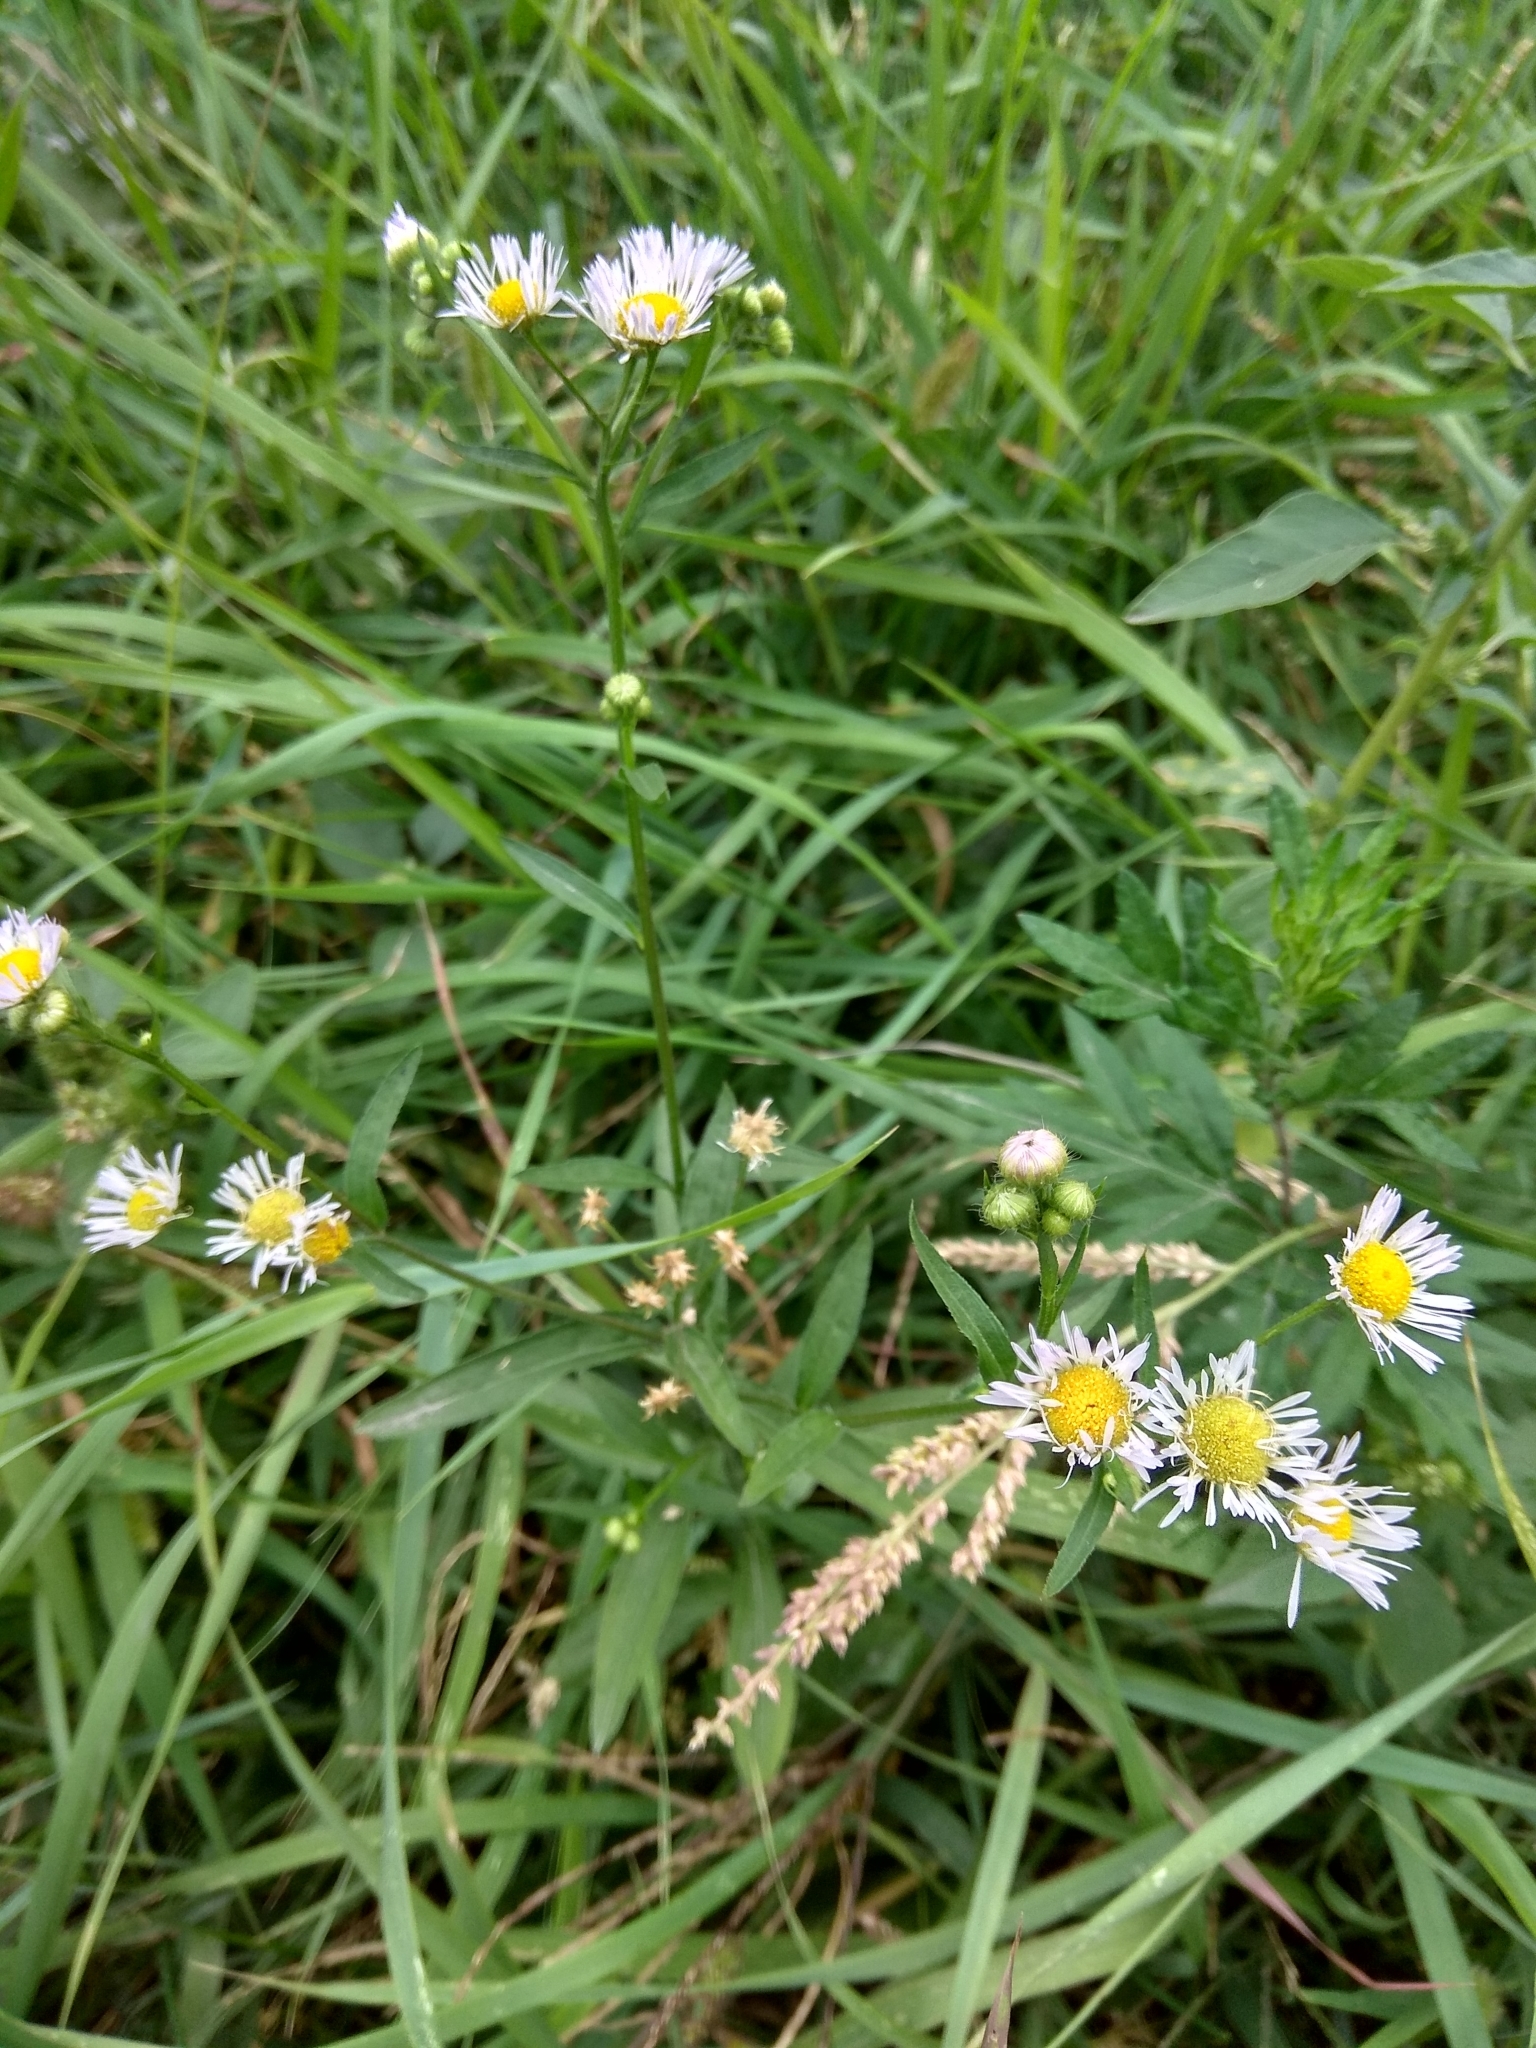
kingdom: Plantae
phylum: Tracheophyta
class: Magnoliopsida
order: Asterales
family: Asteraceae
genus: Erigeron
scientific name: Erigeron annuus
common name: Tall fleabane
